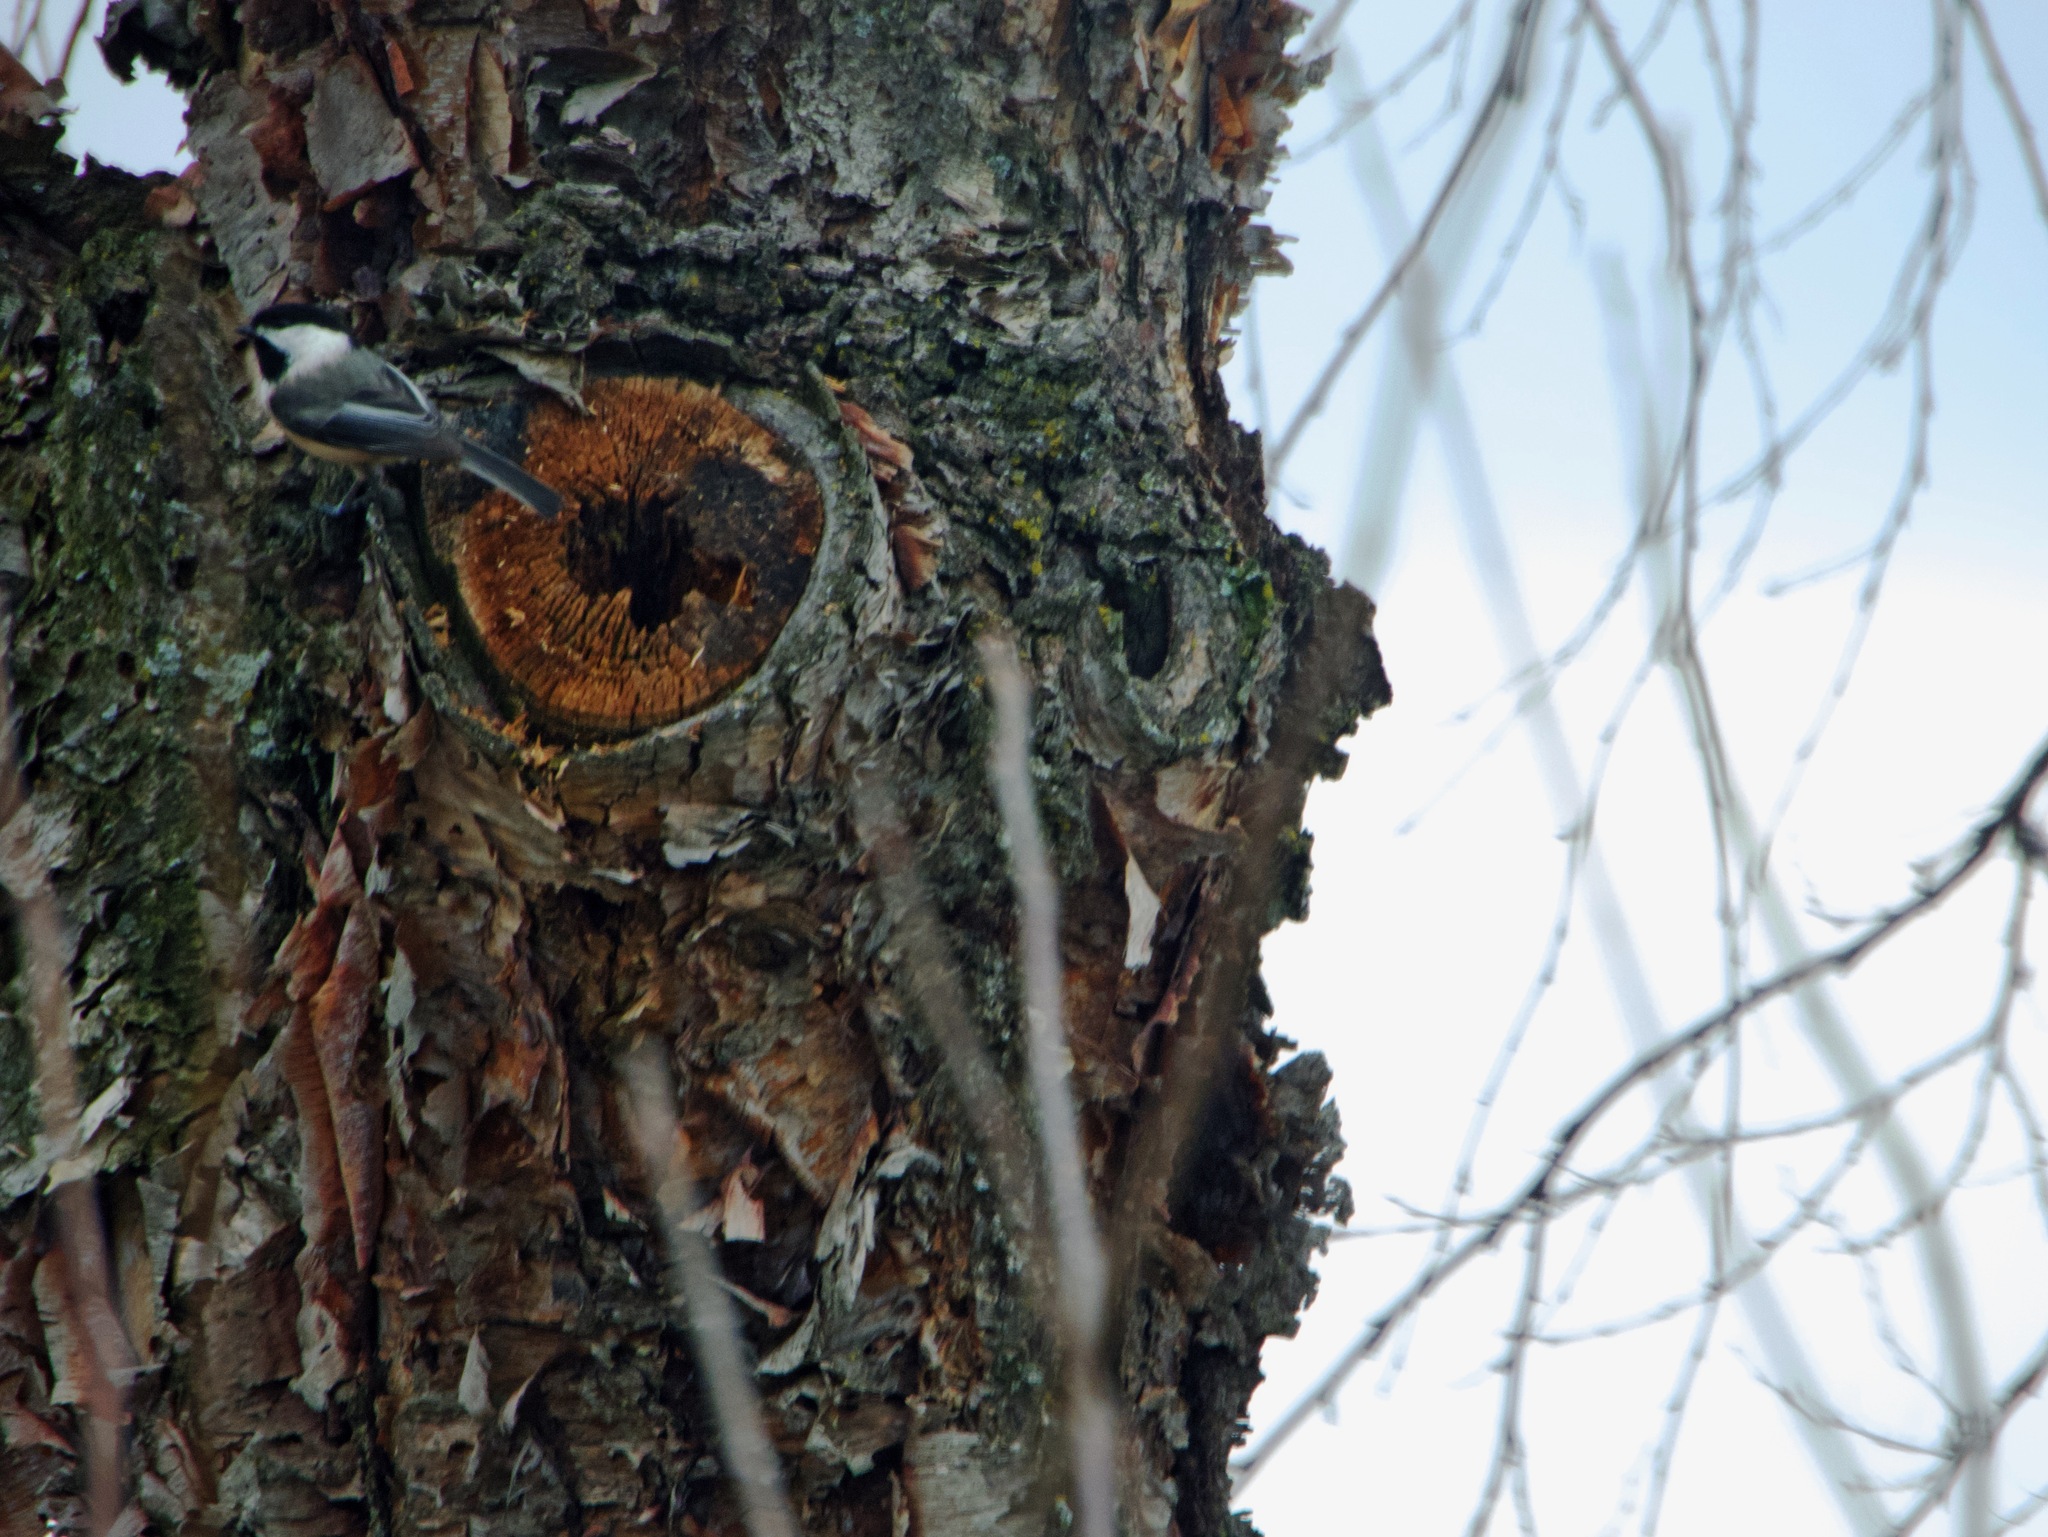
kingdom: Animalia
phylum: Chordata
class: Aves
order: Passeriformes
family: Paridae
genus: Poecile
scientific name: Poecile atricapillus
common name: Black-capped chickadee
